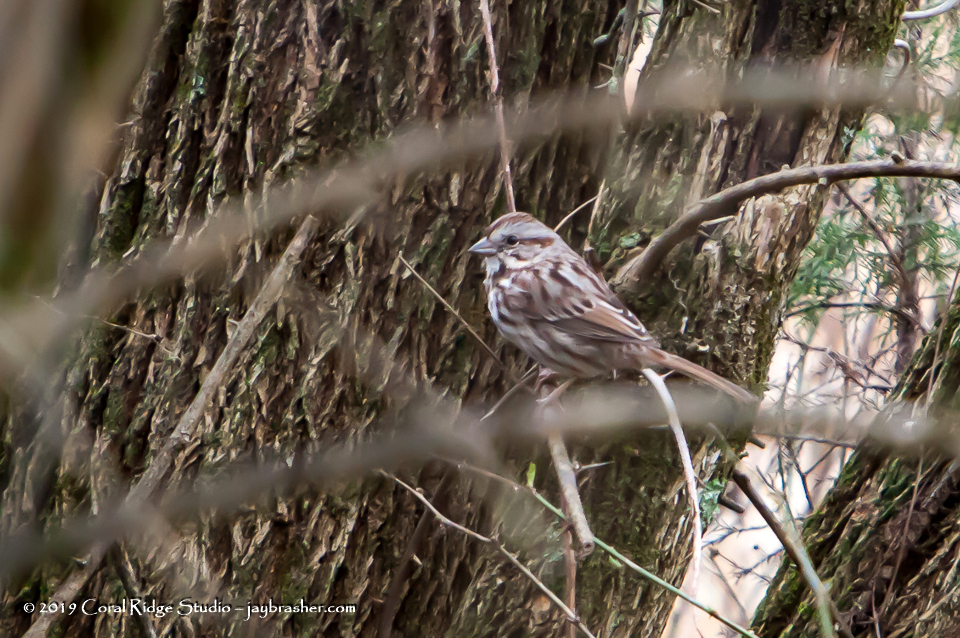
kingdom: Animalia
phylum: Chordata
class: Aves
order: Passeriformes
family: Passerellidae
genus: Melospiza
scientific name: Melospiza melodia
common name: Song sparrow
